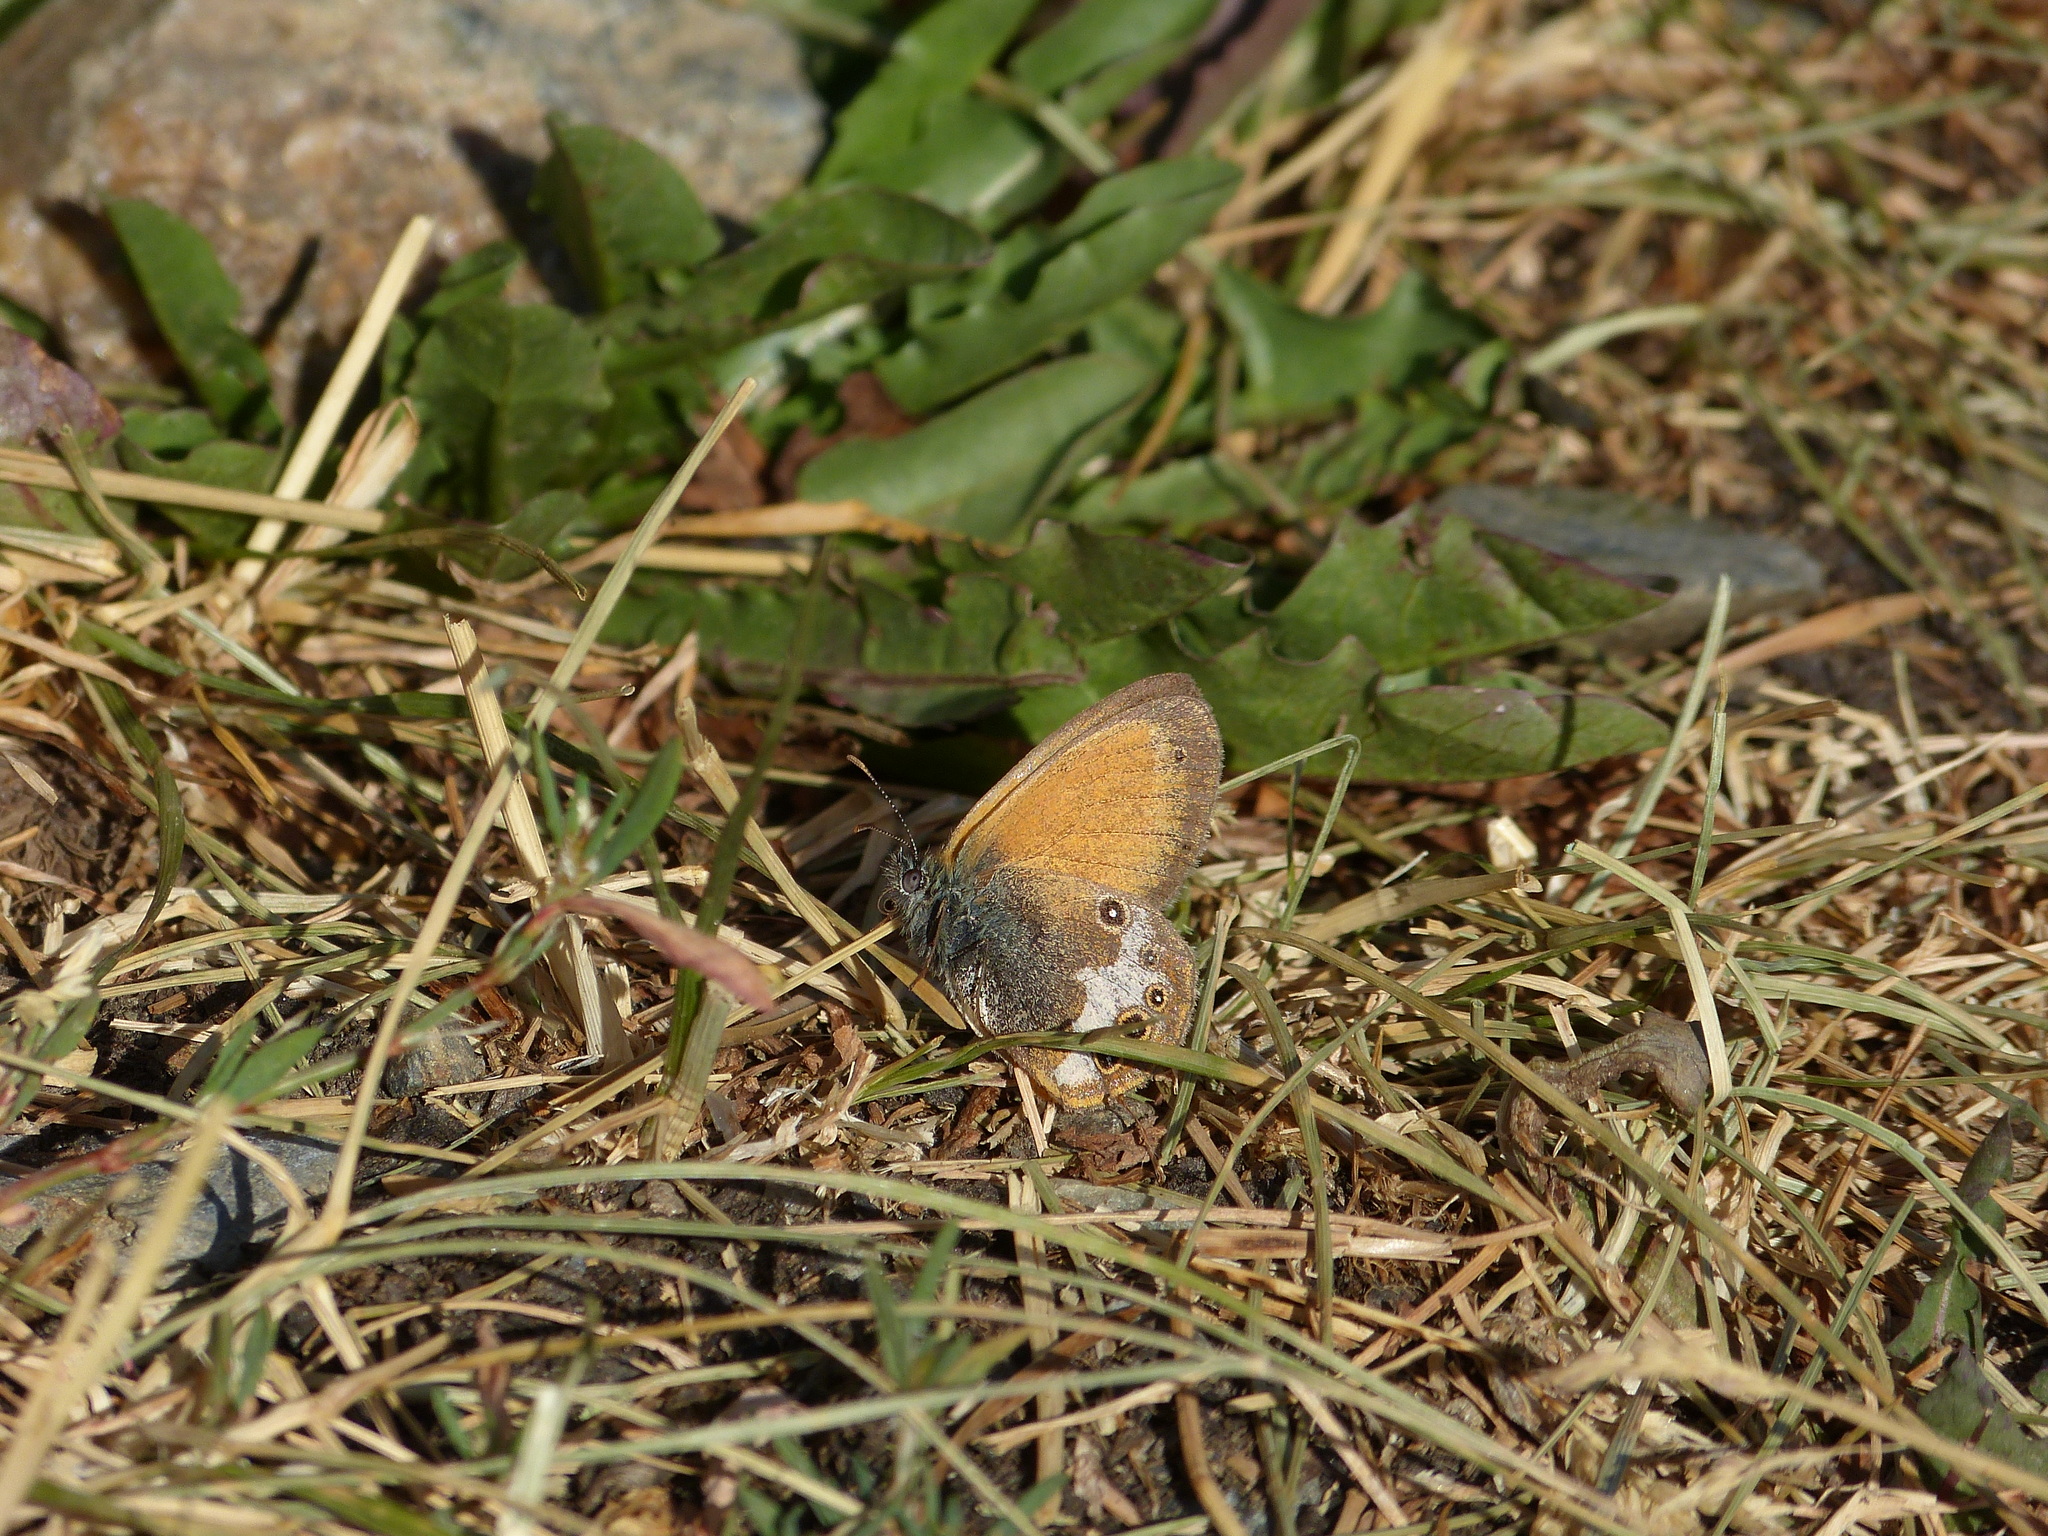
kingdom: Animalia
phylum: Arthropoda
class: Insecta
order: Lepidoptera
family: Nymphalidae
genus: Coenonympha
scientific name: Coenonympha arcania
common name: Pearly heath
